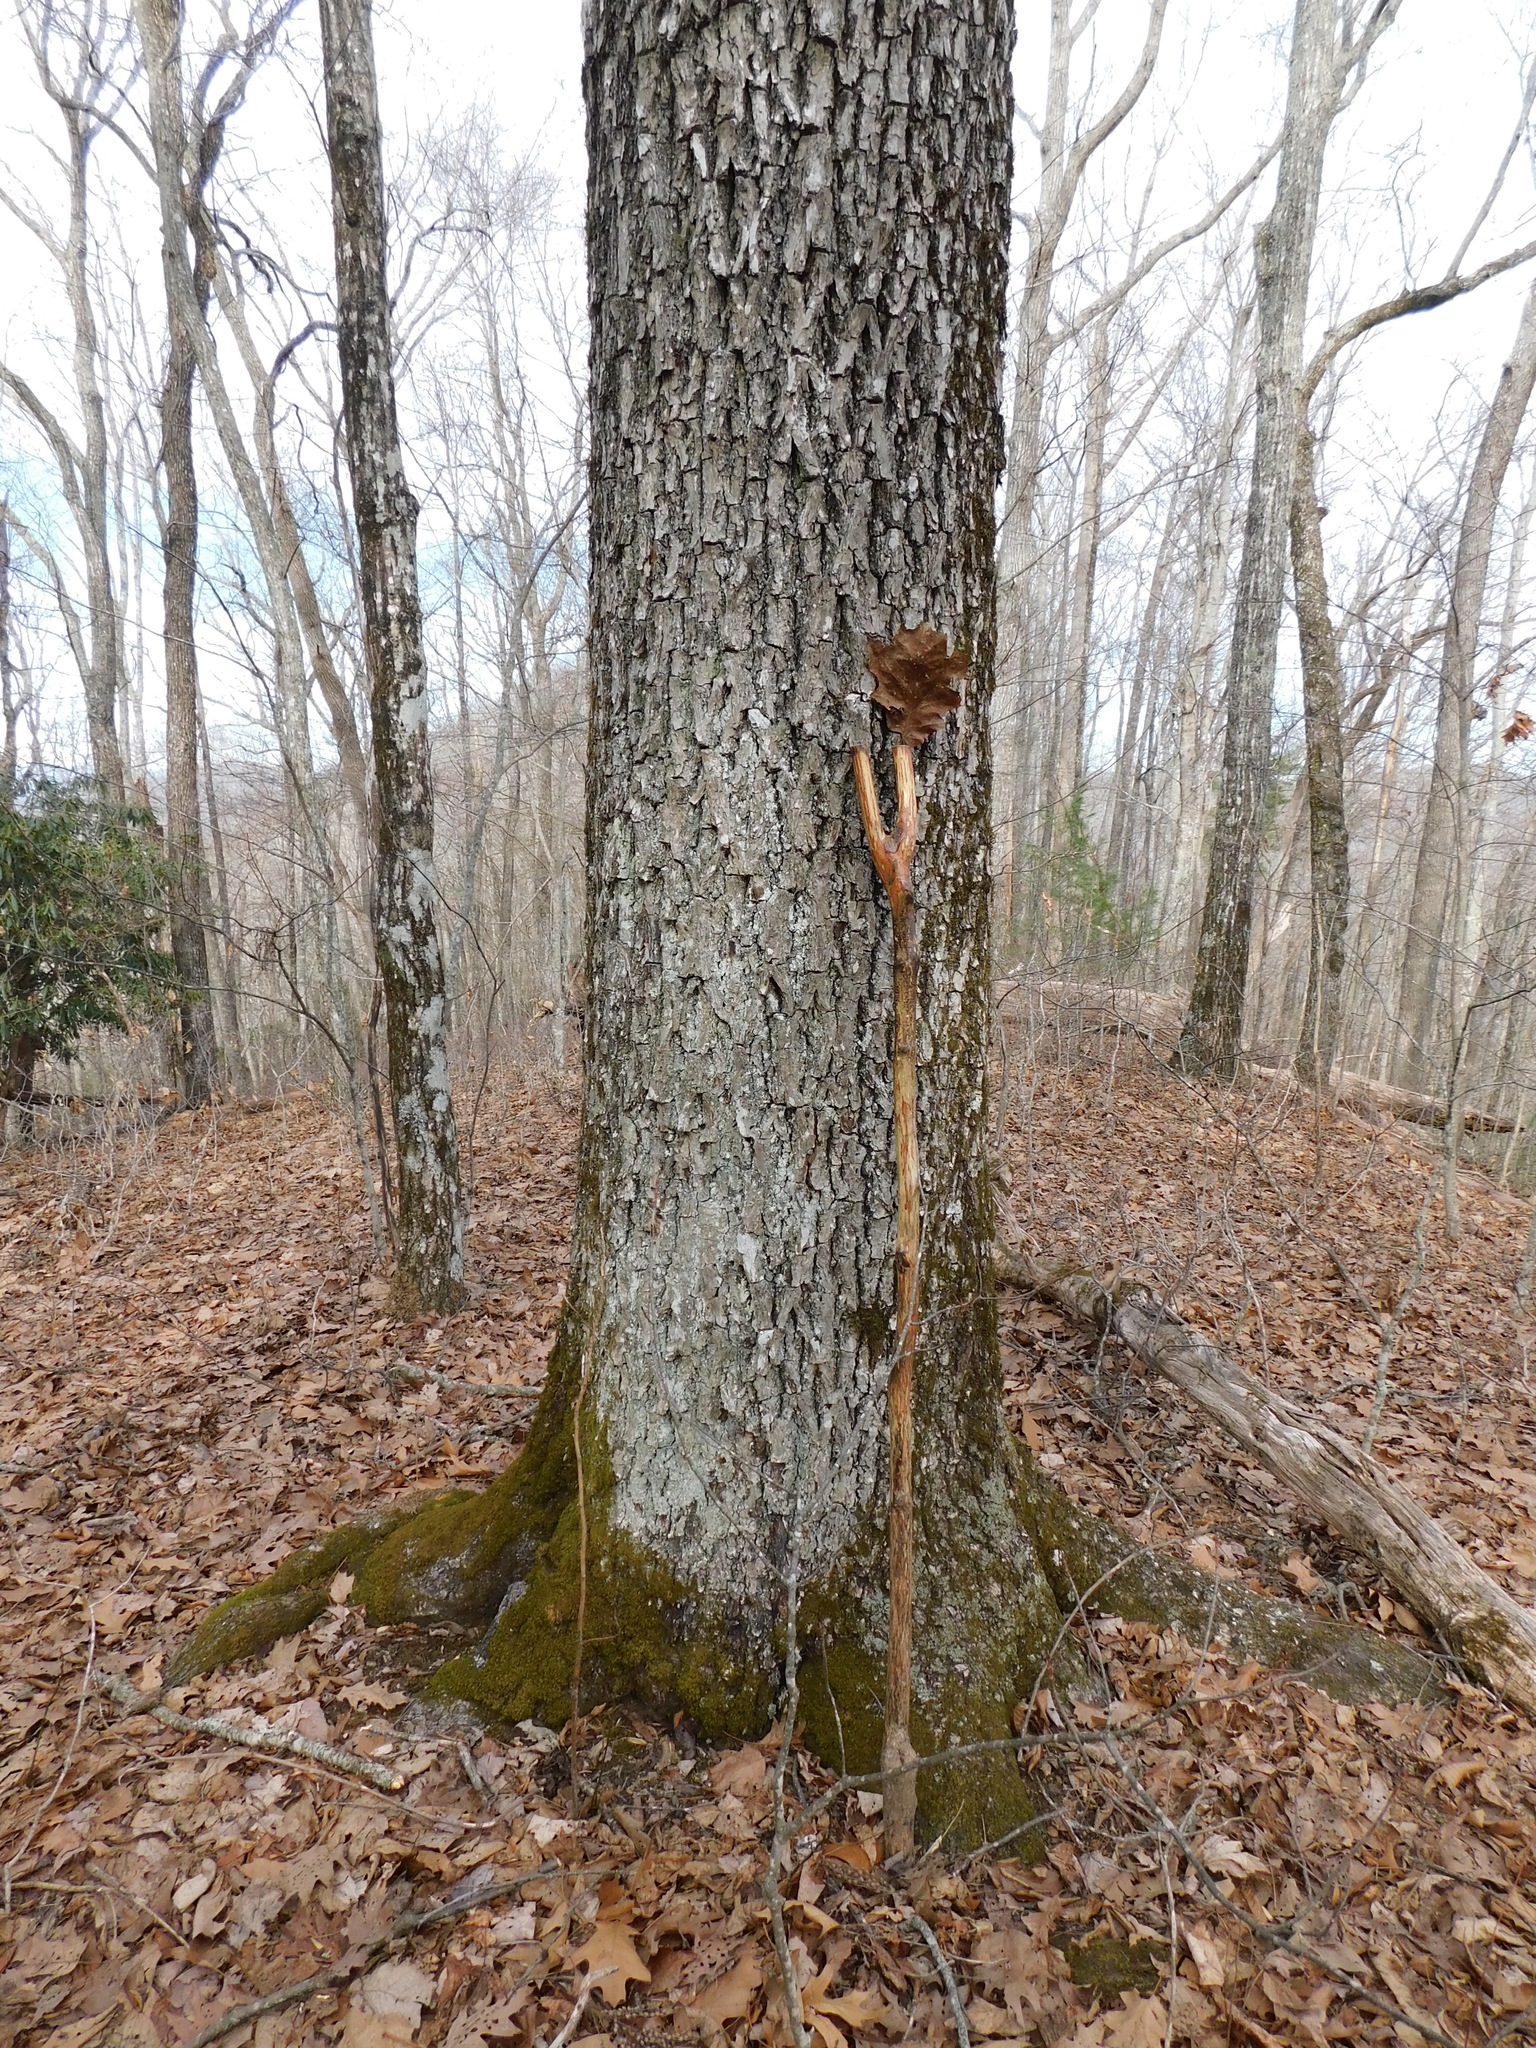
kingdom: Plantae
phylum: Tracheophyta
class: Magnoliopsida
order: Fagales
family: Fagaceae
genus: Quercus
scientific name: Quercus velutina
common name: Black oak
